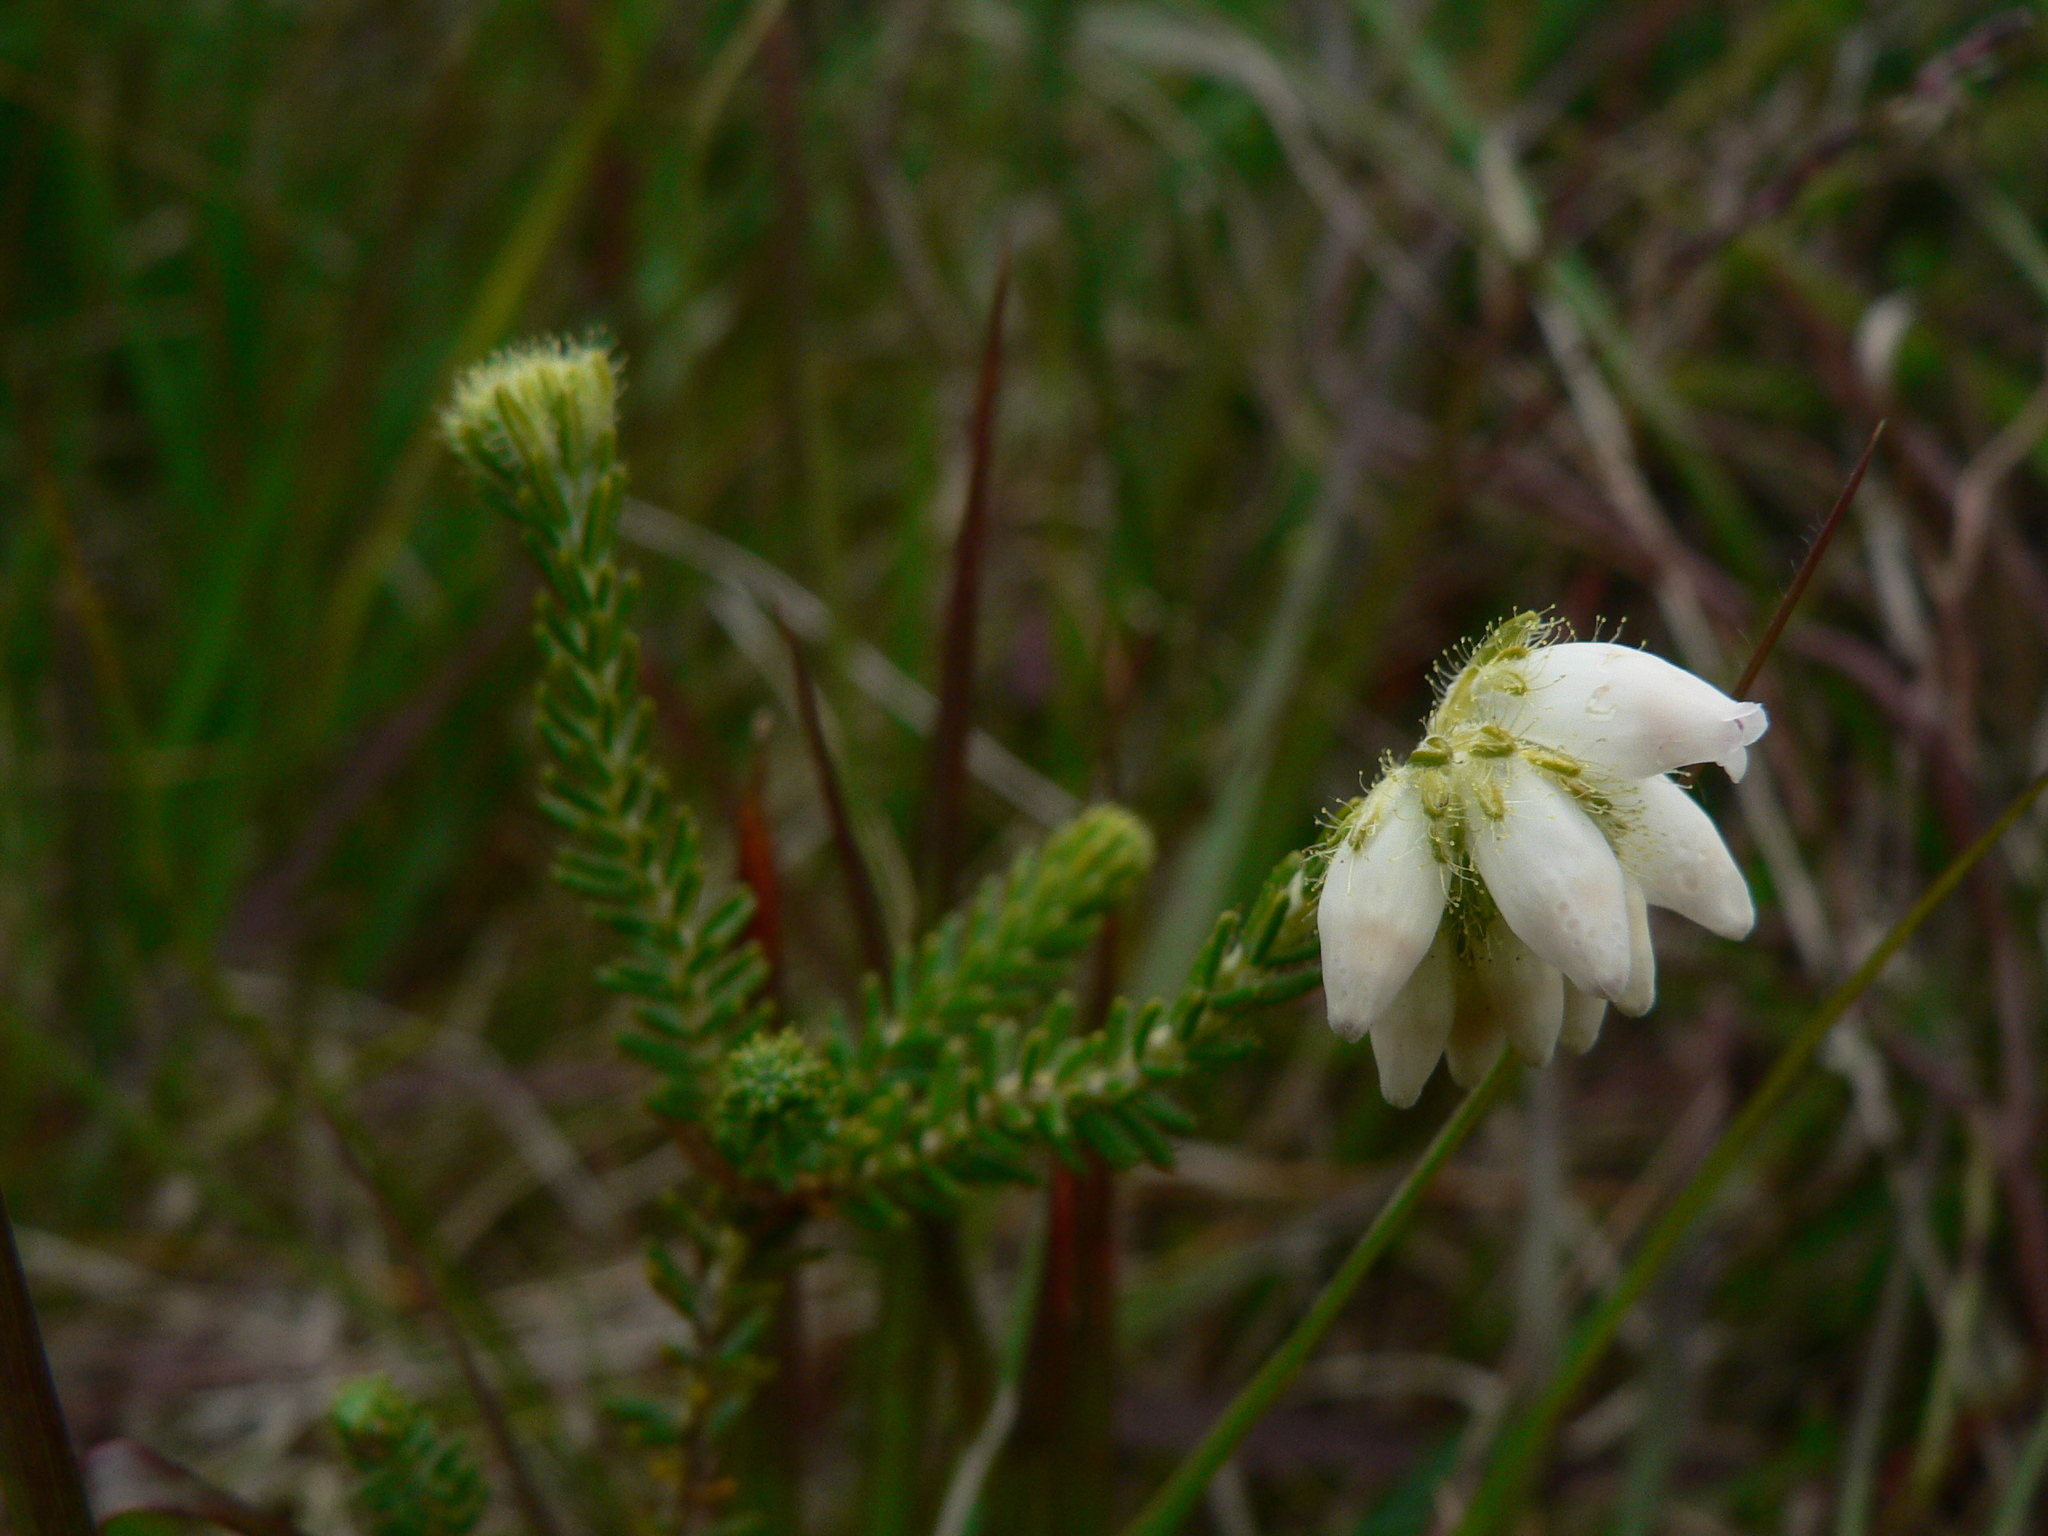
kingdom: Plantae
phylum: Tracheophyta
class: Magnoliopsida
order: Ericales
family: Ericaceae
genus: Erica
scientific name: Erica tetralix
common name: Cross-leaved heath
